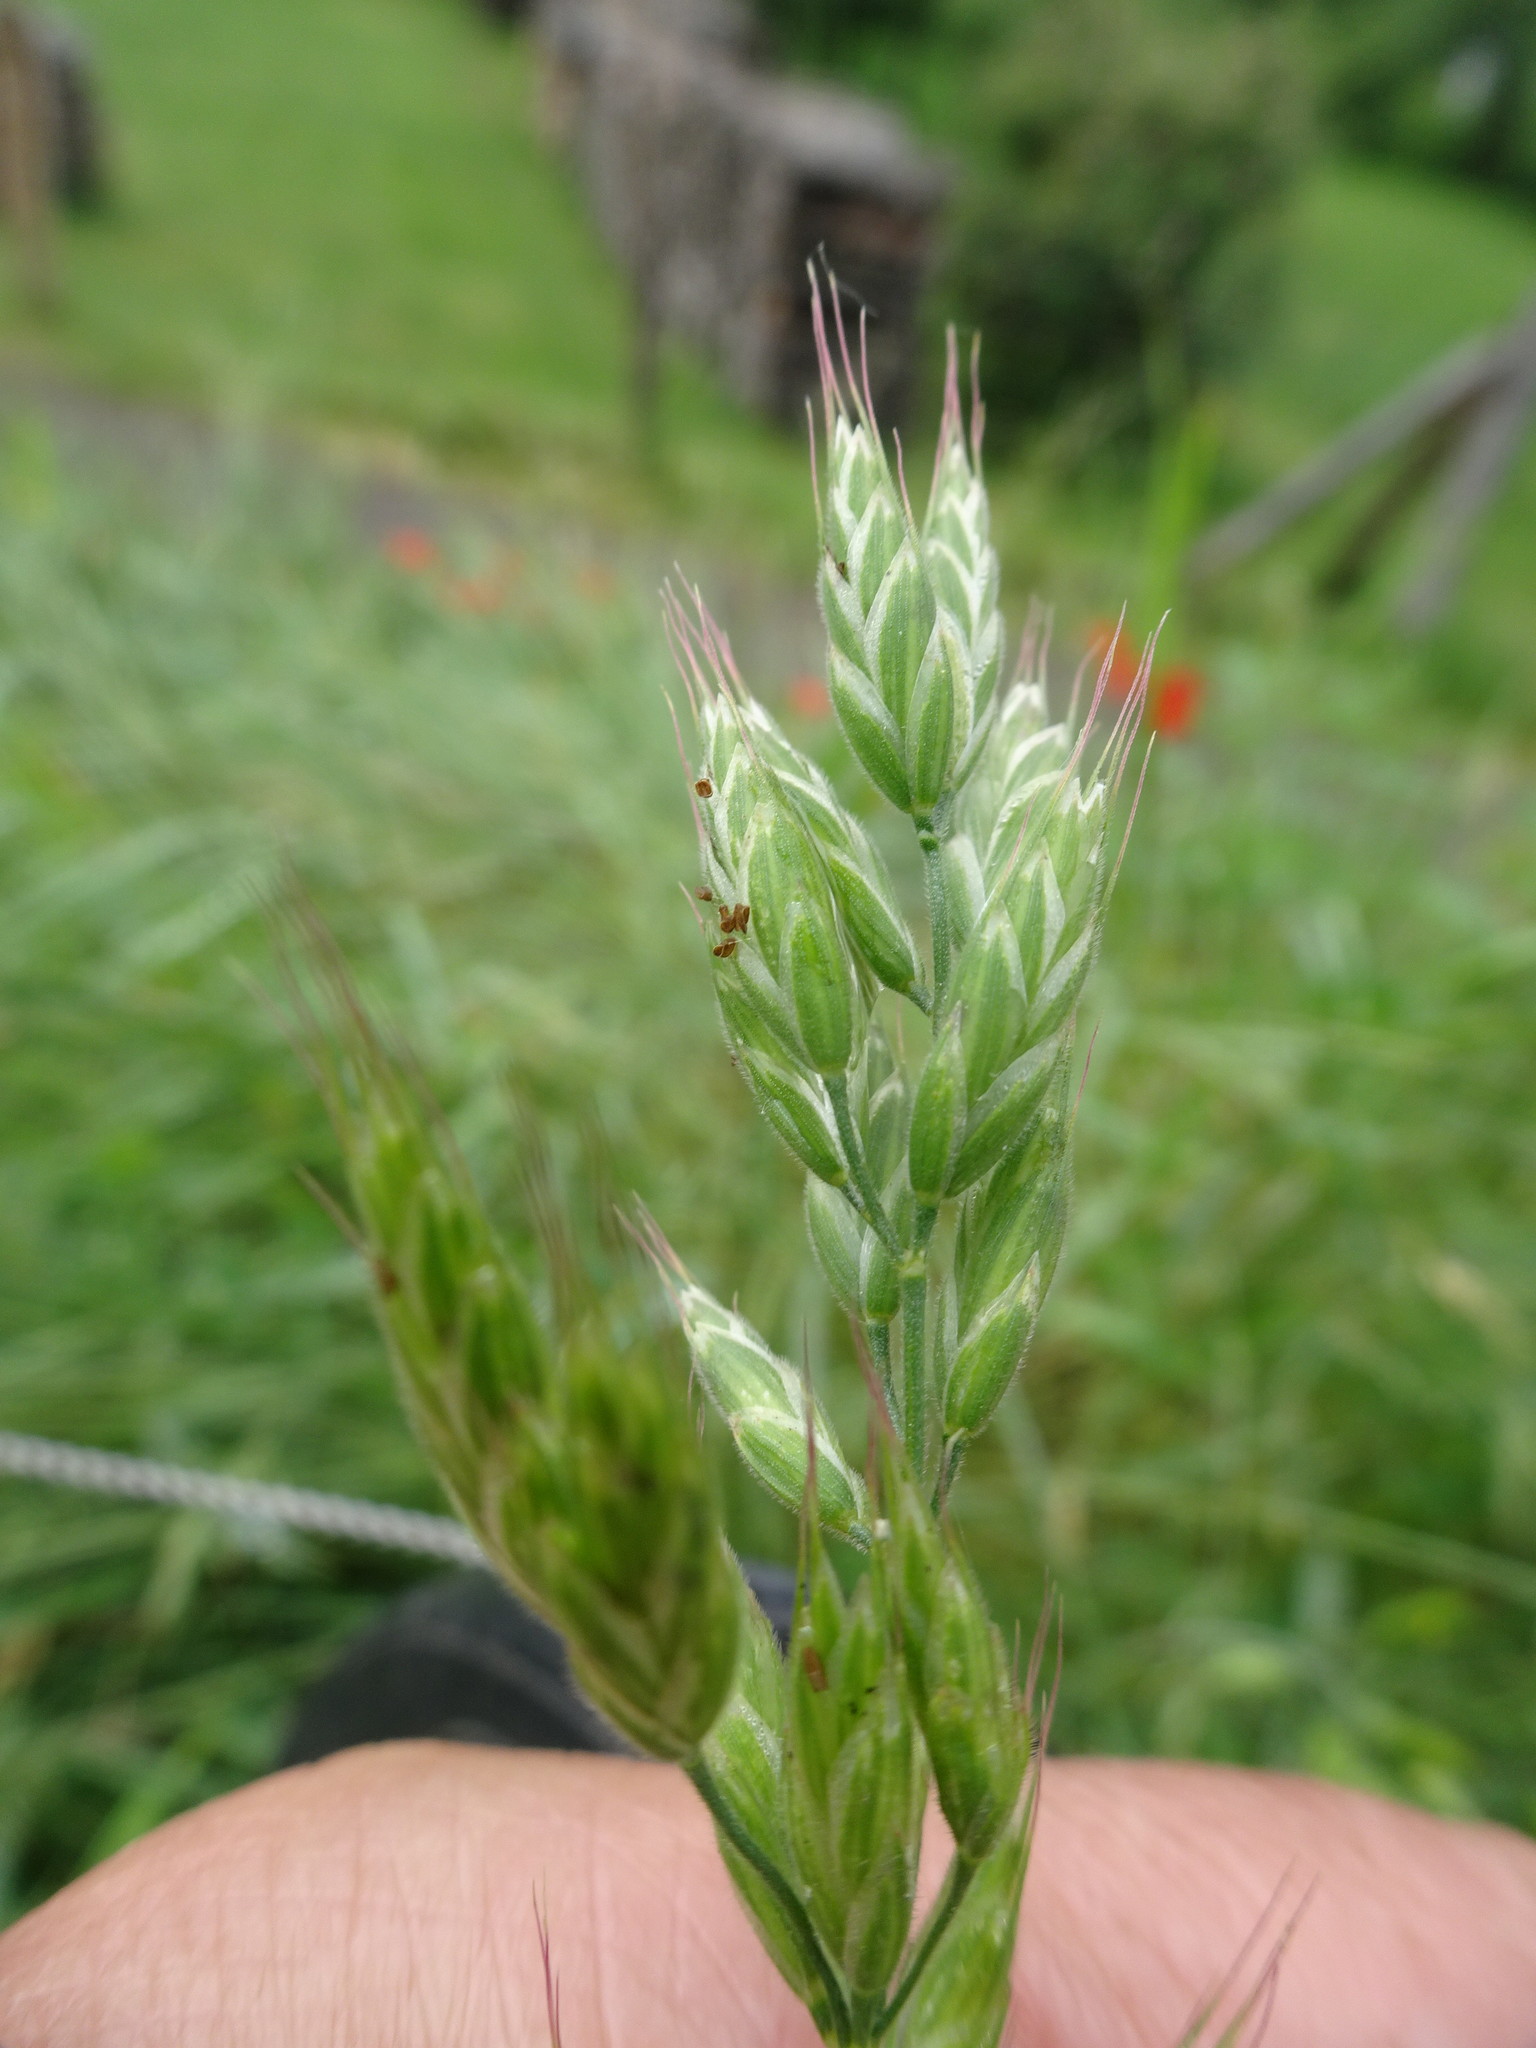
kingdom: Plantae
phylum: Tracheophyta
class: Liliopsida
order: Poales
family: Poaceae
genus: Bromus
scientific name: Bromus hordeaceus
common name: Soft brome
